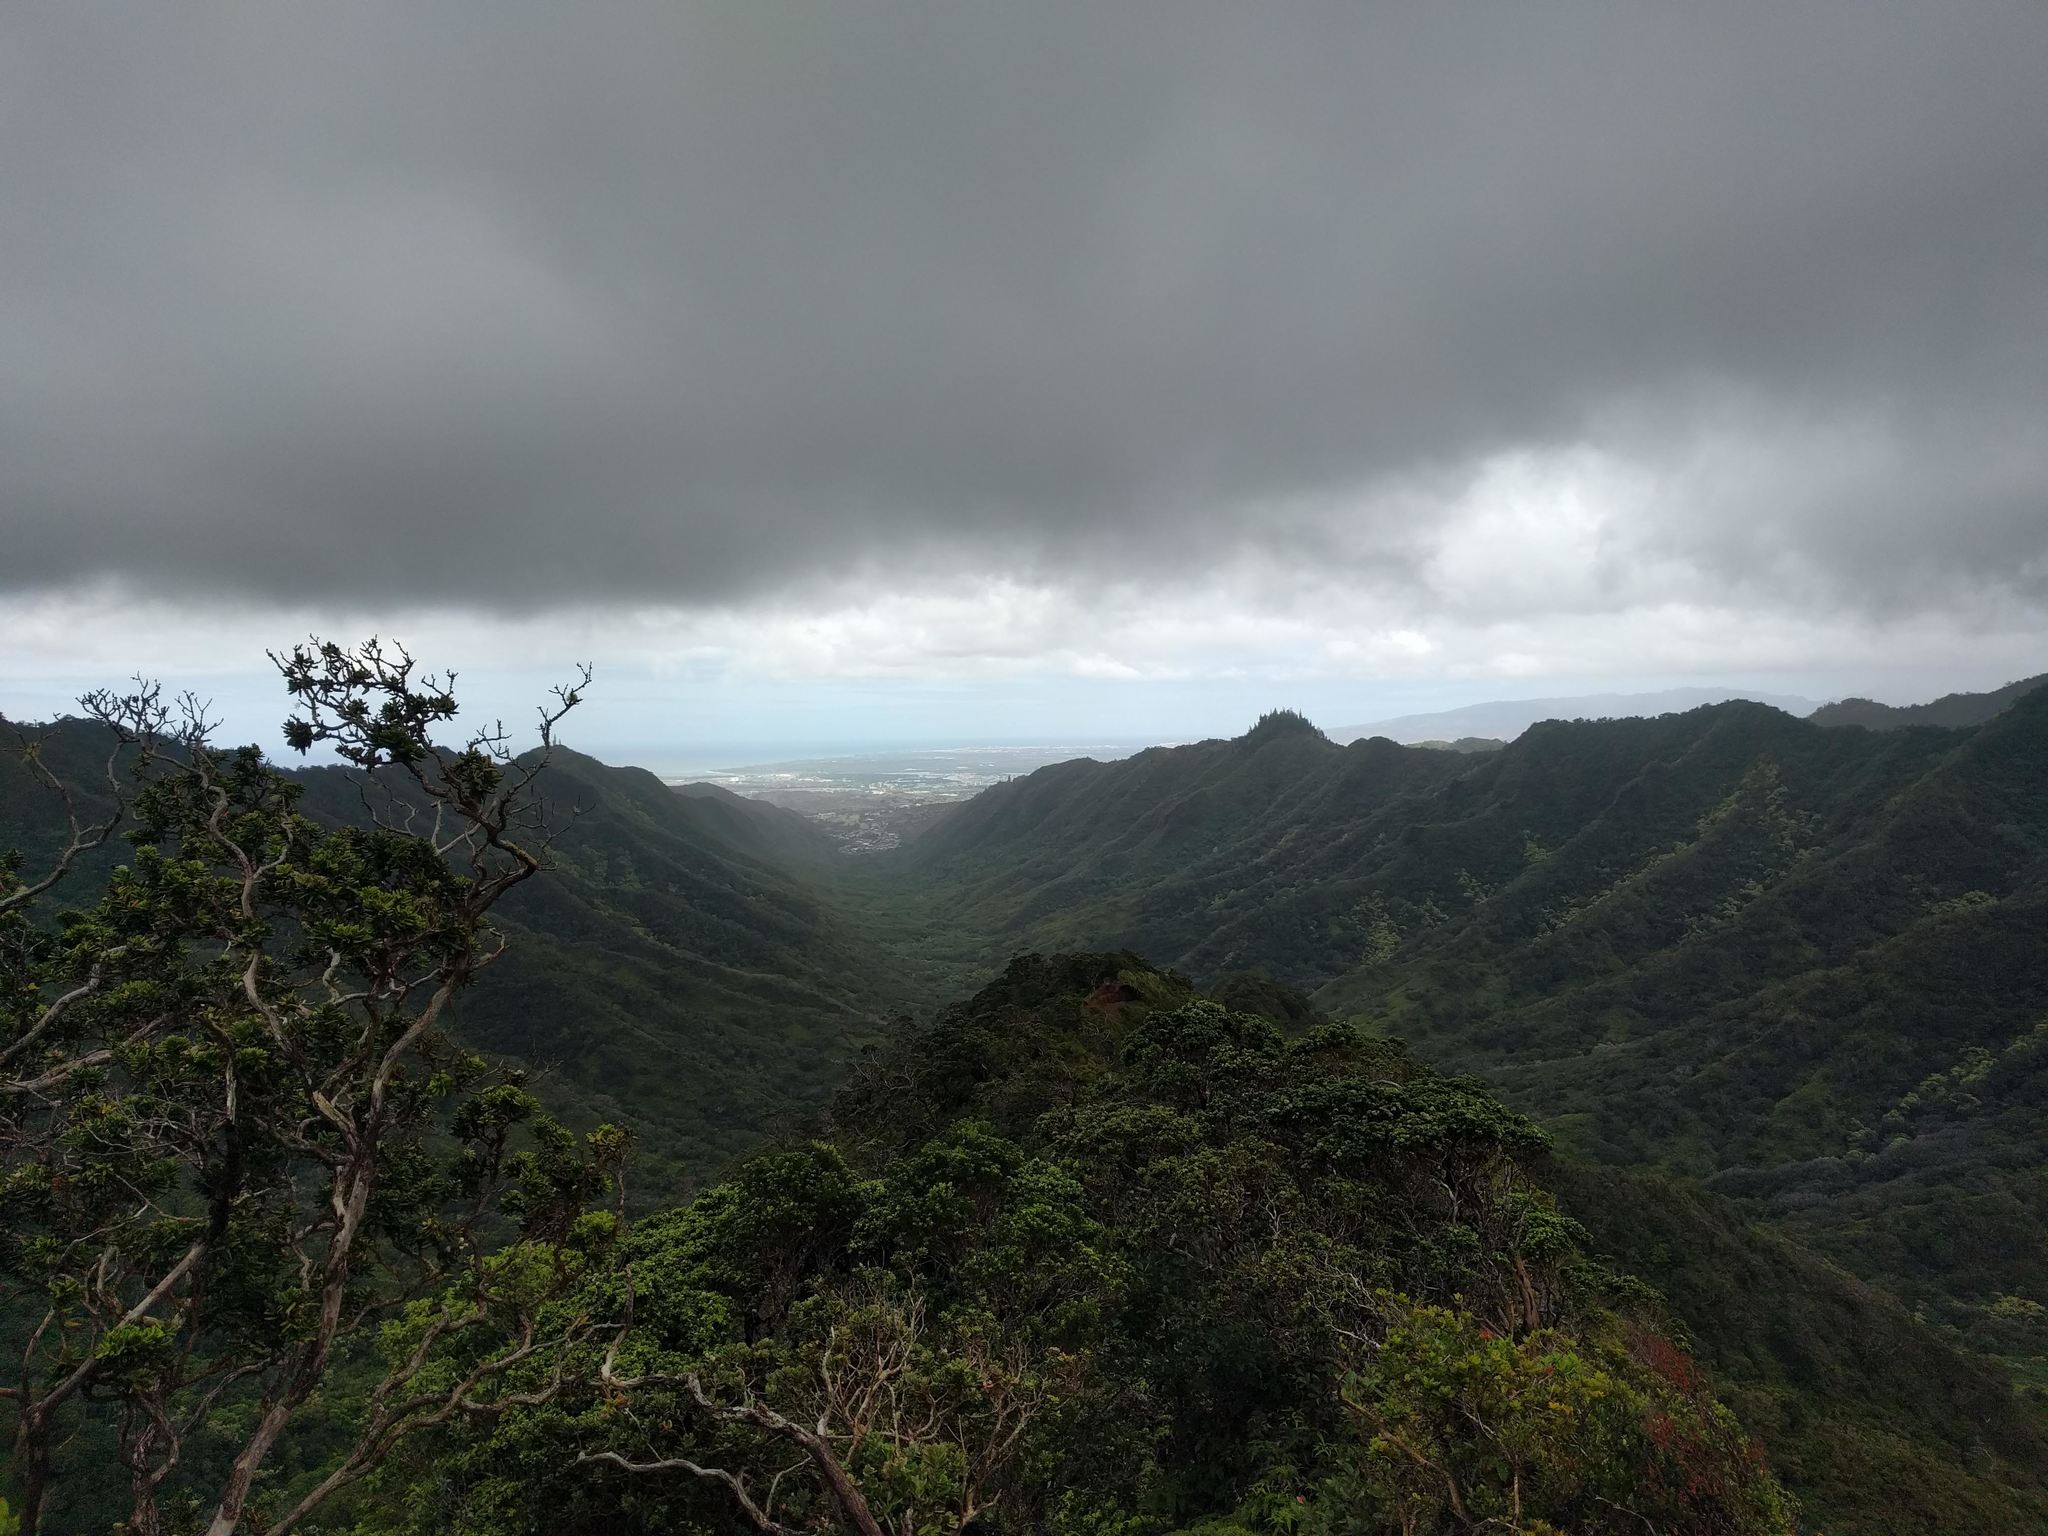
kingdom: Plantae
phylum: Tracheophyta
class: Magnoliopsida
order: Myrtales
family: Myrtaceae
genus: Metrosideros
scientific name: Metrosideros polymorpha
